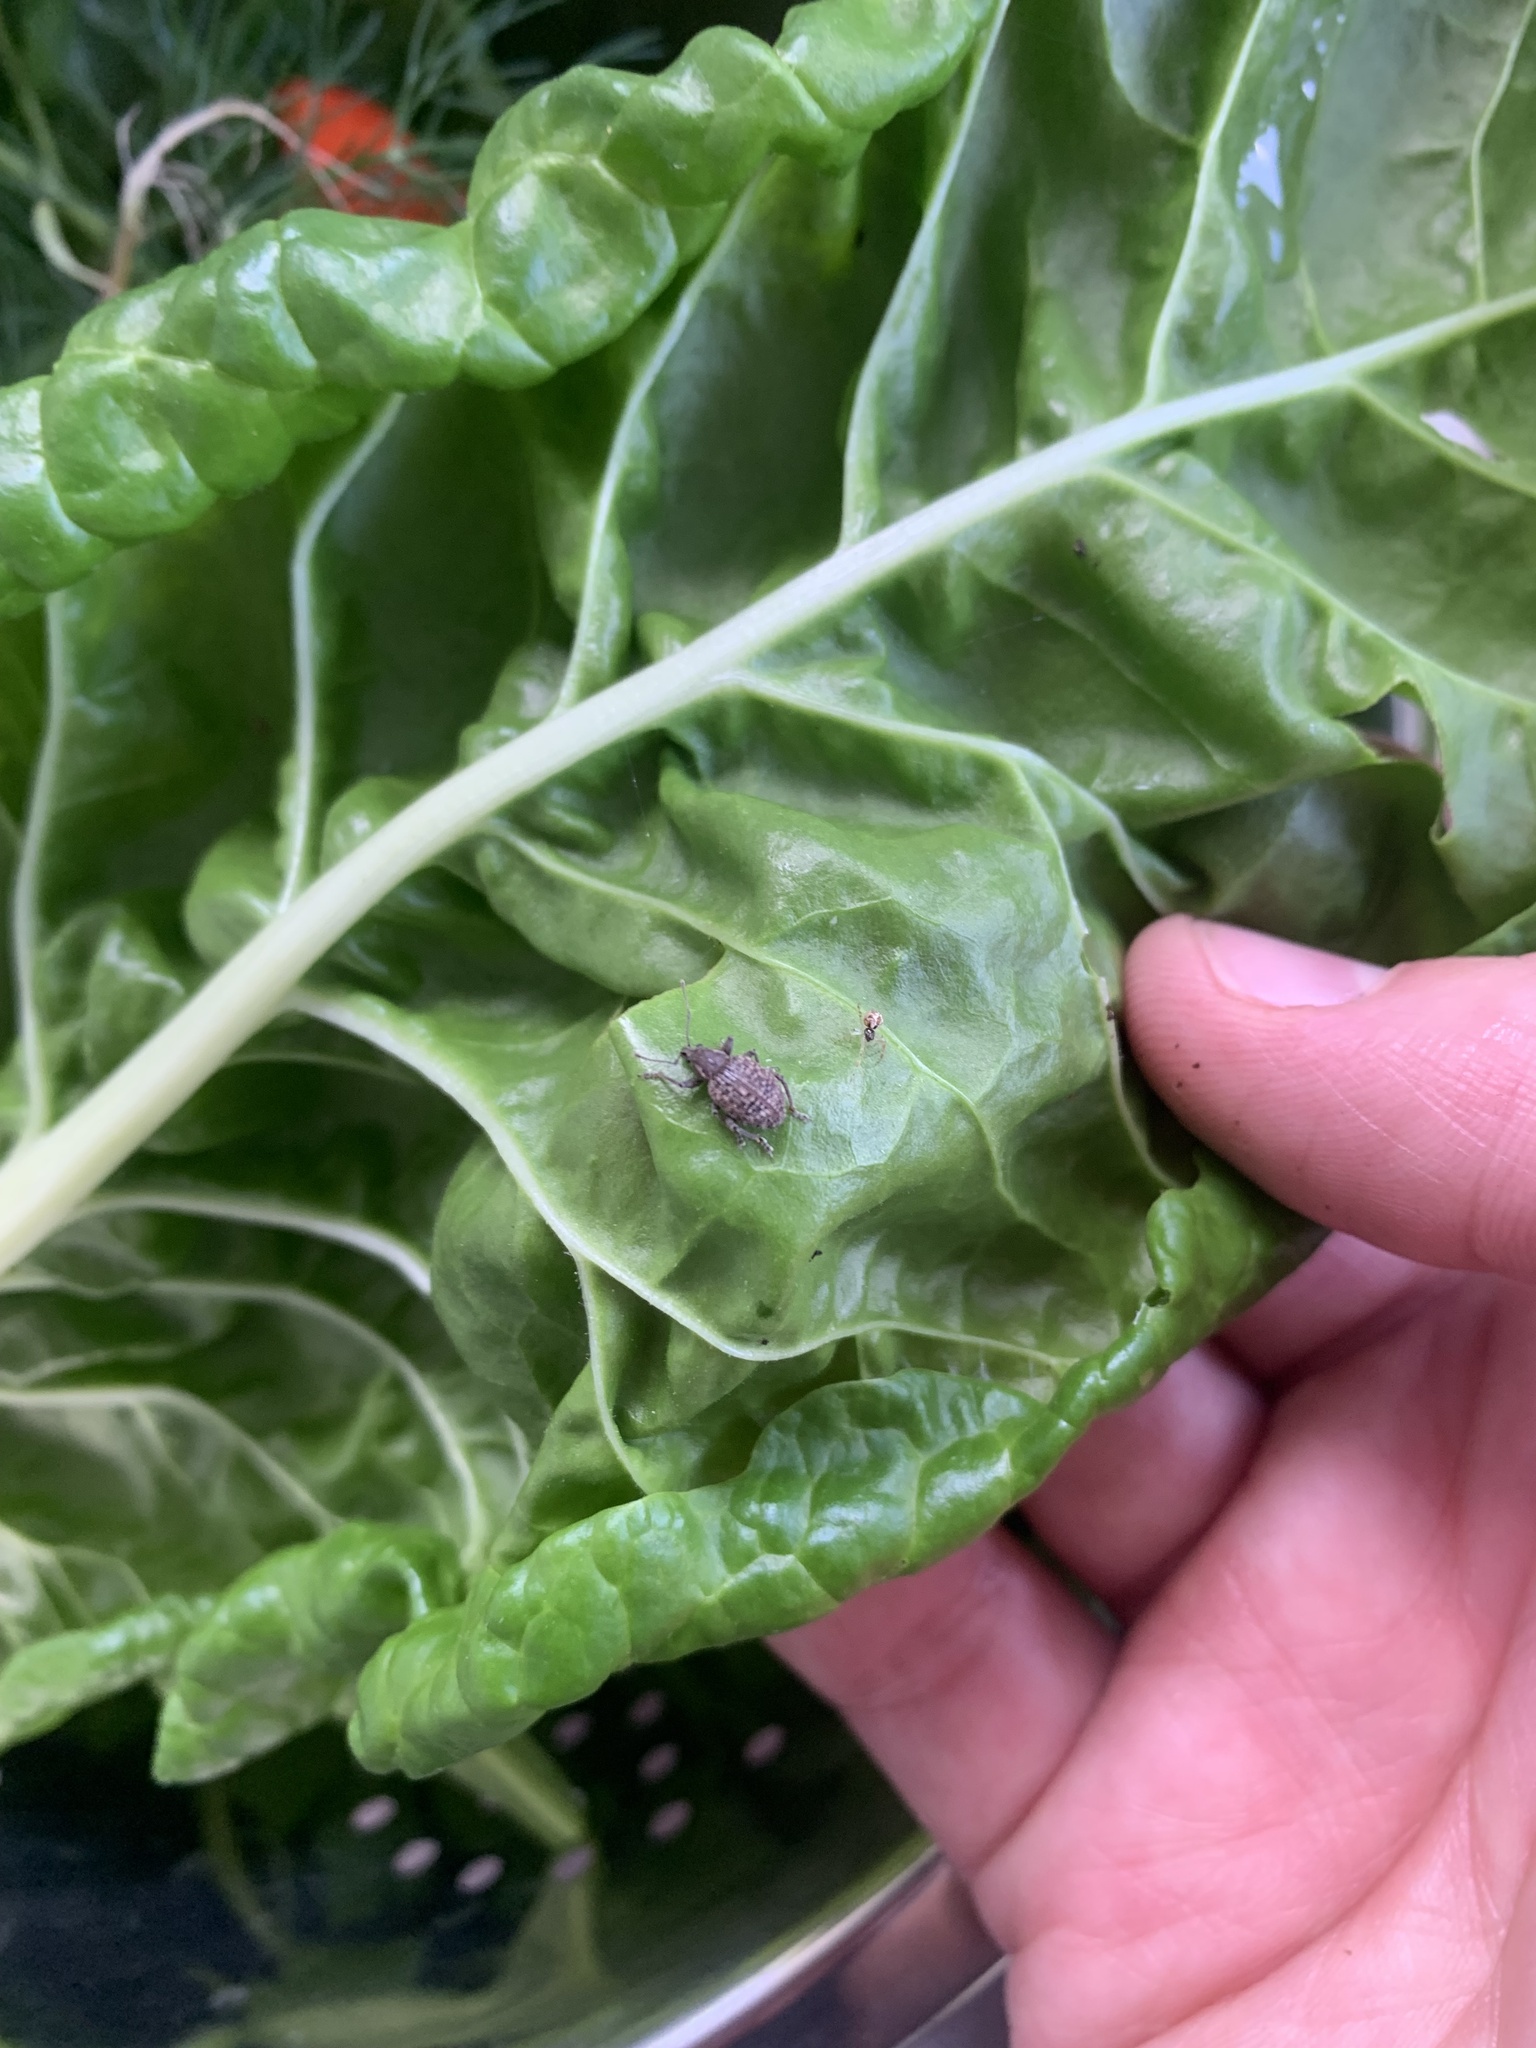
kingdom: Animalia
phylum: Arthropoda
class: Insecta
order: Coleoptera
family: Curculionidae
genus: Phlyctinus
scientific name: Phlyctinus callosus
